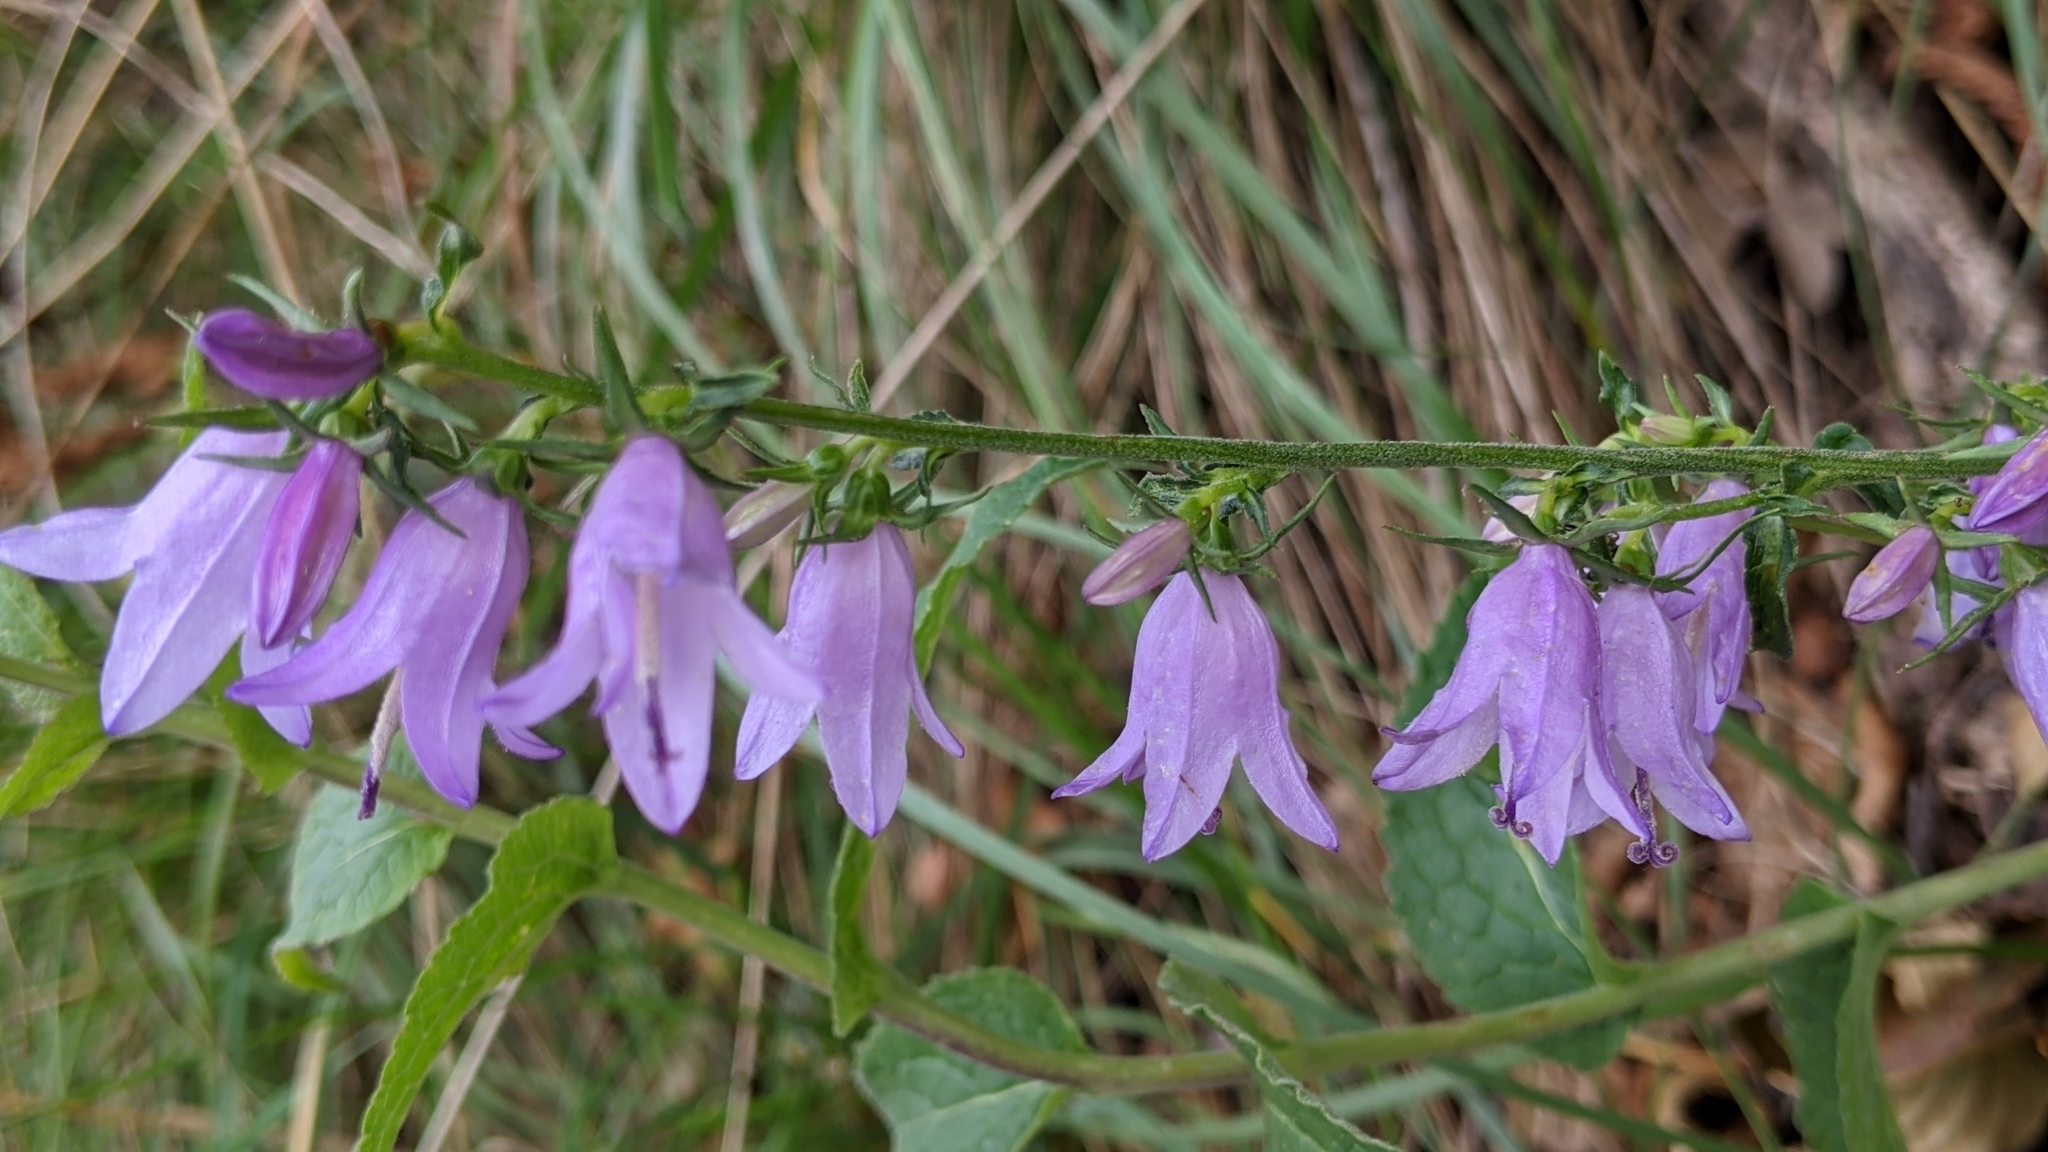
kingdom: Plantae
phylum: Tracheophyta
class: Magnoliopsida
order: Asterales
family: Campanulaceae
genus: Campanula
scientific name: Campanula rapunculoides
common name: Creeping bellflower
